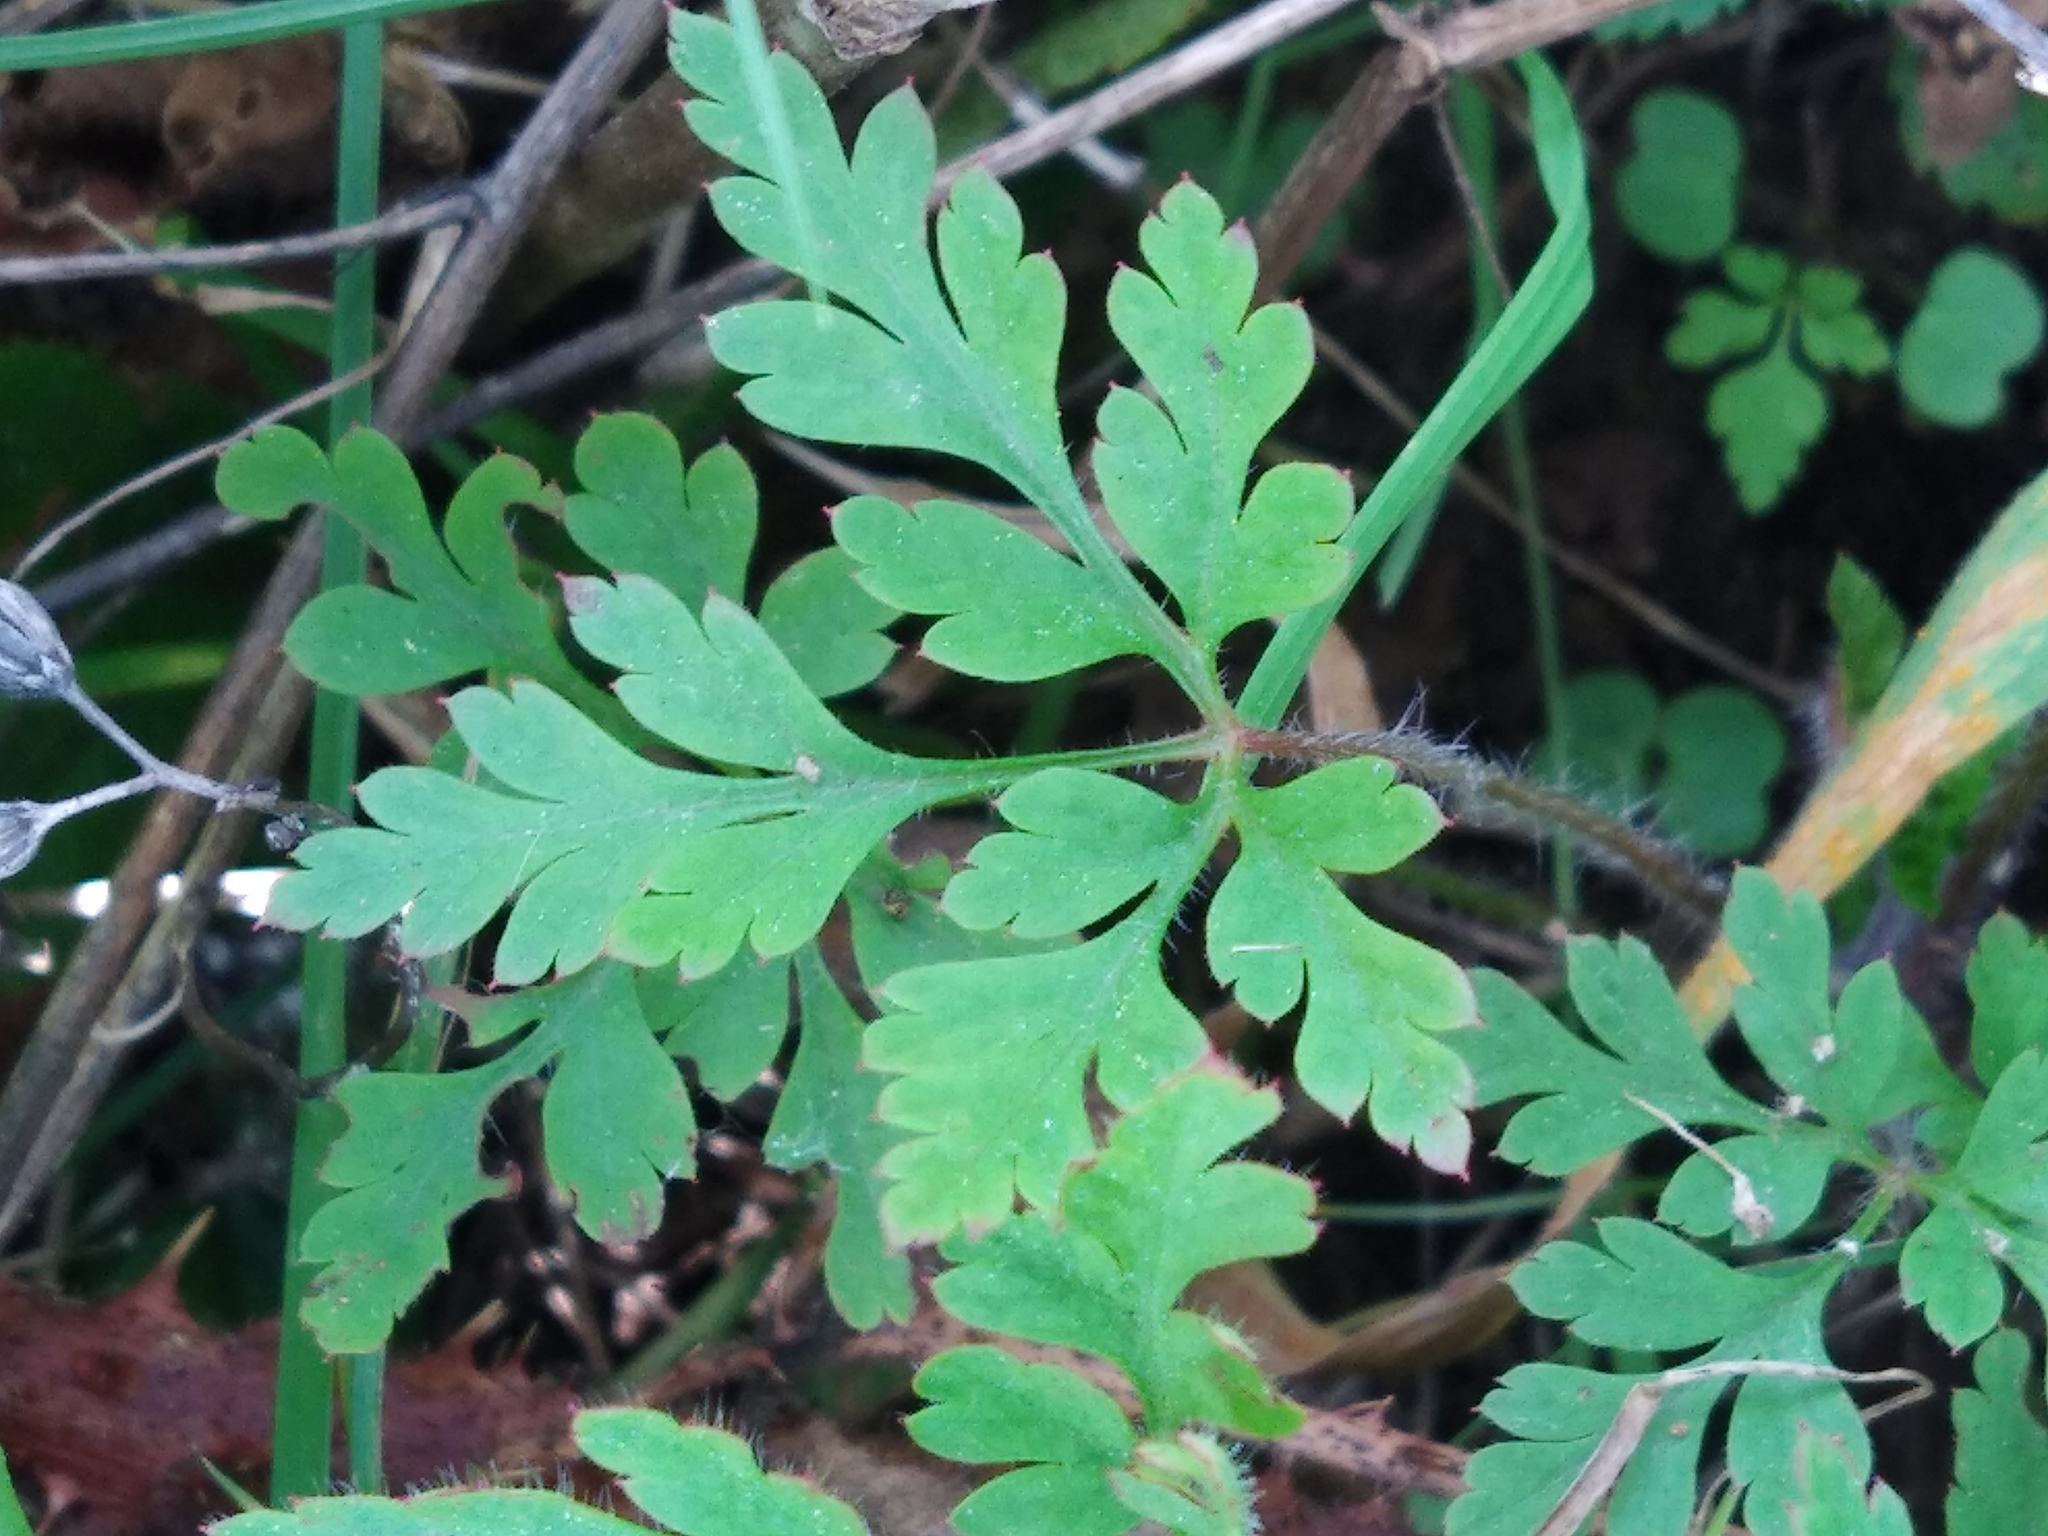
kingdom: Plantae
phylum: Tracheophyta
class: Magnoliopsida
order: Geraniales
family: Geraniaceae
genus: Geranium
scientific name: Geranium robertianum
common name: Herb-robert
